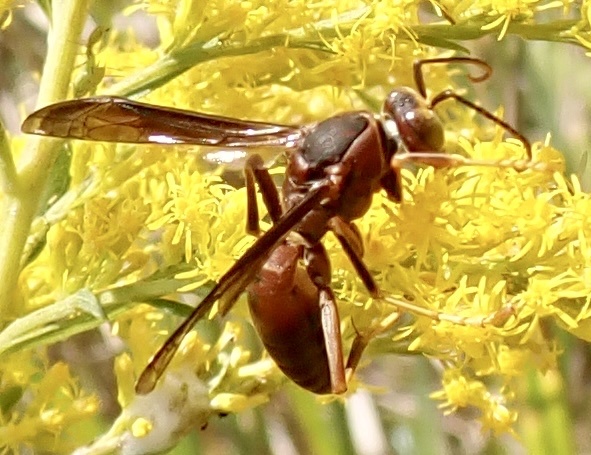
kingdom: Animalia
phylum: Arthropoda
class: Insecta
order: Hymenoptera
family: Eumenidae
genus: Polistes
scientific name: Polistes metricus
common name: Metric paper wasp
